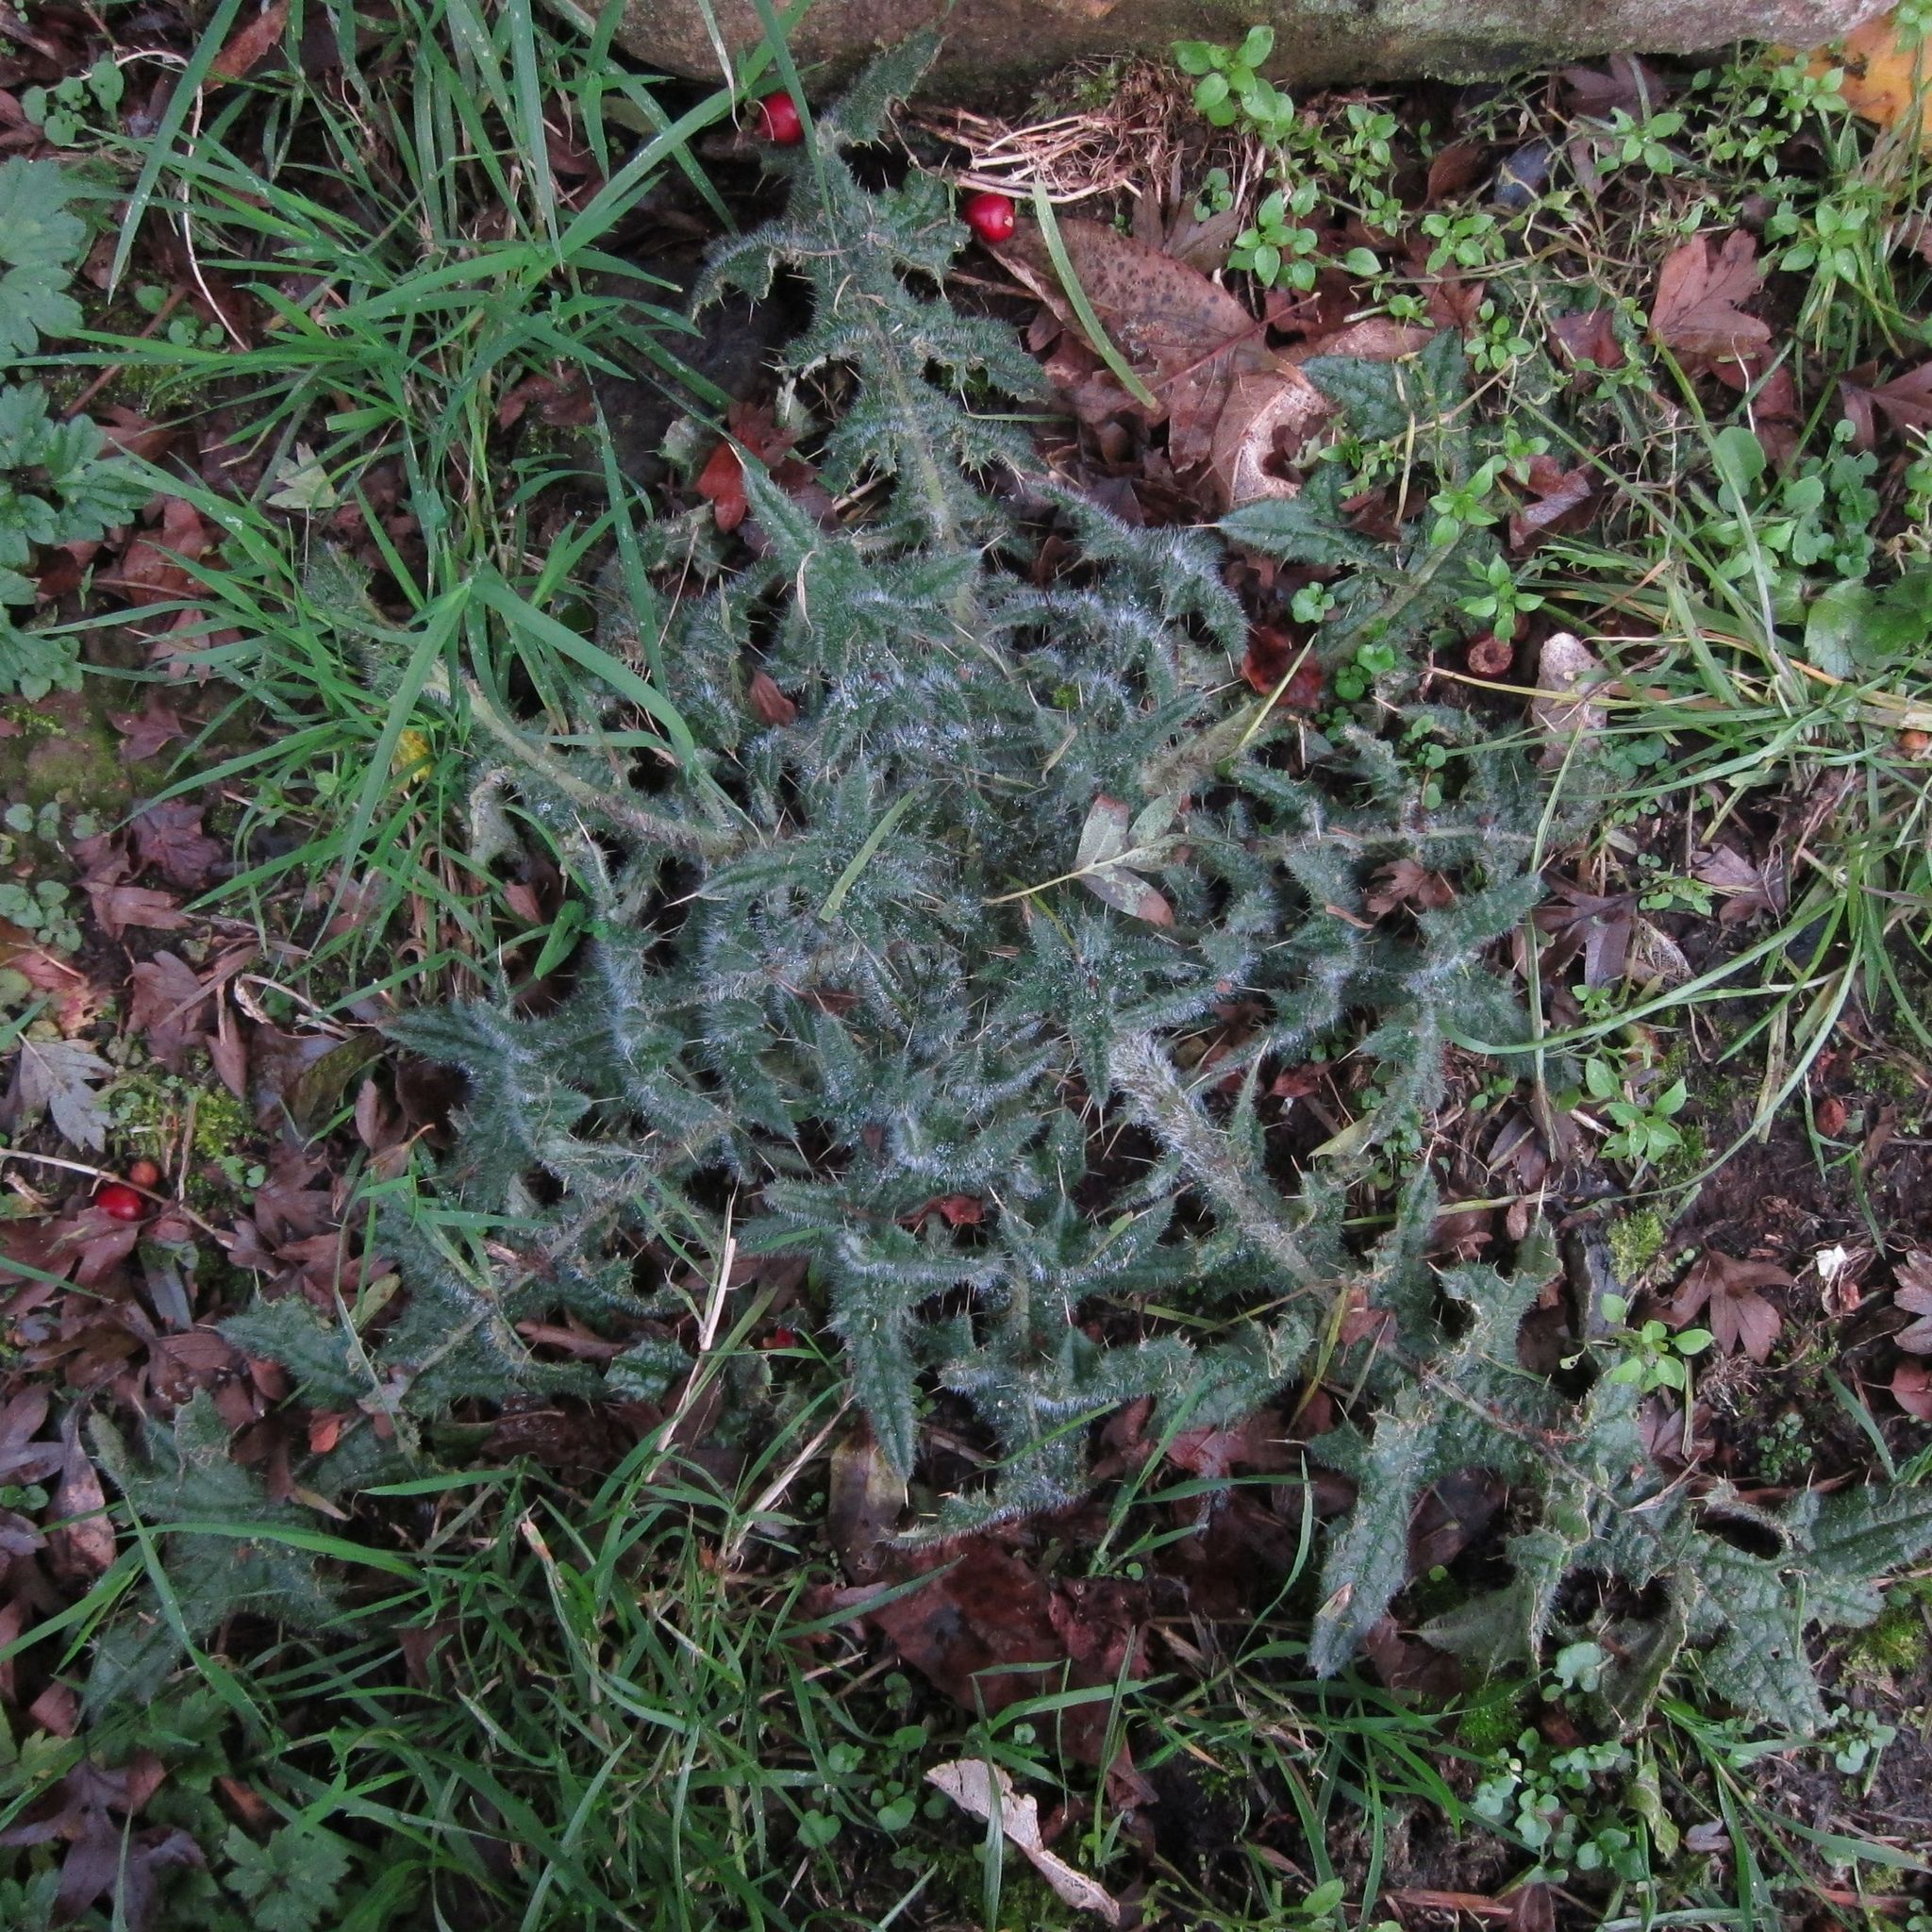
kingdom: Plantae
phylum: Tracheophyta
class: Magnoliopsida
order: Asterales
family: Asteraceae
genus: Cirsium
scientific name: Cirsium vulgare
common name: Bull thistle
